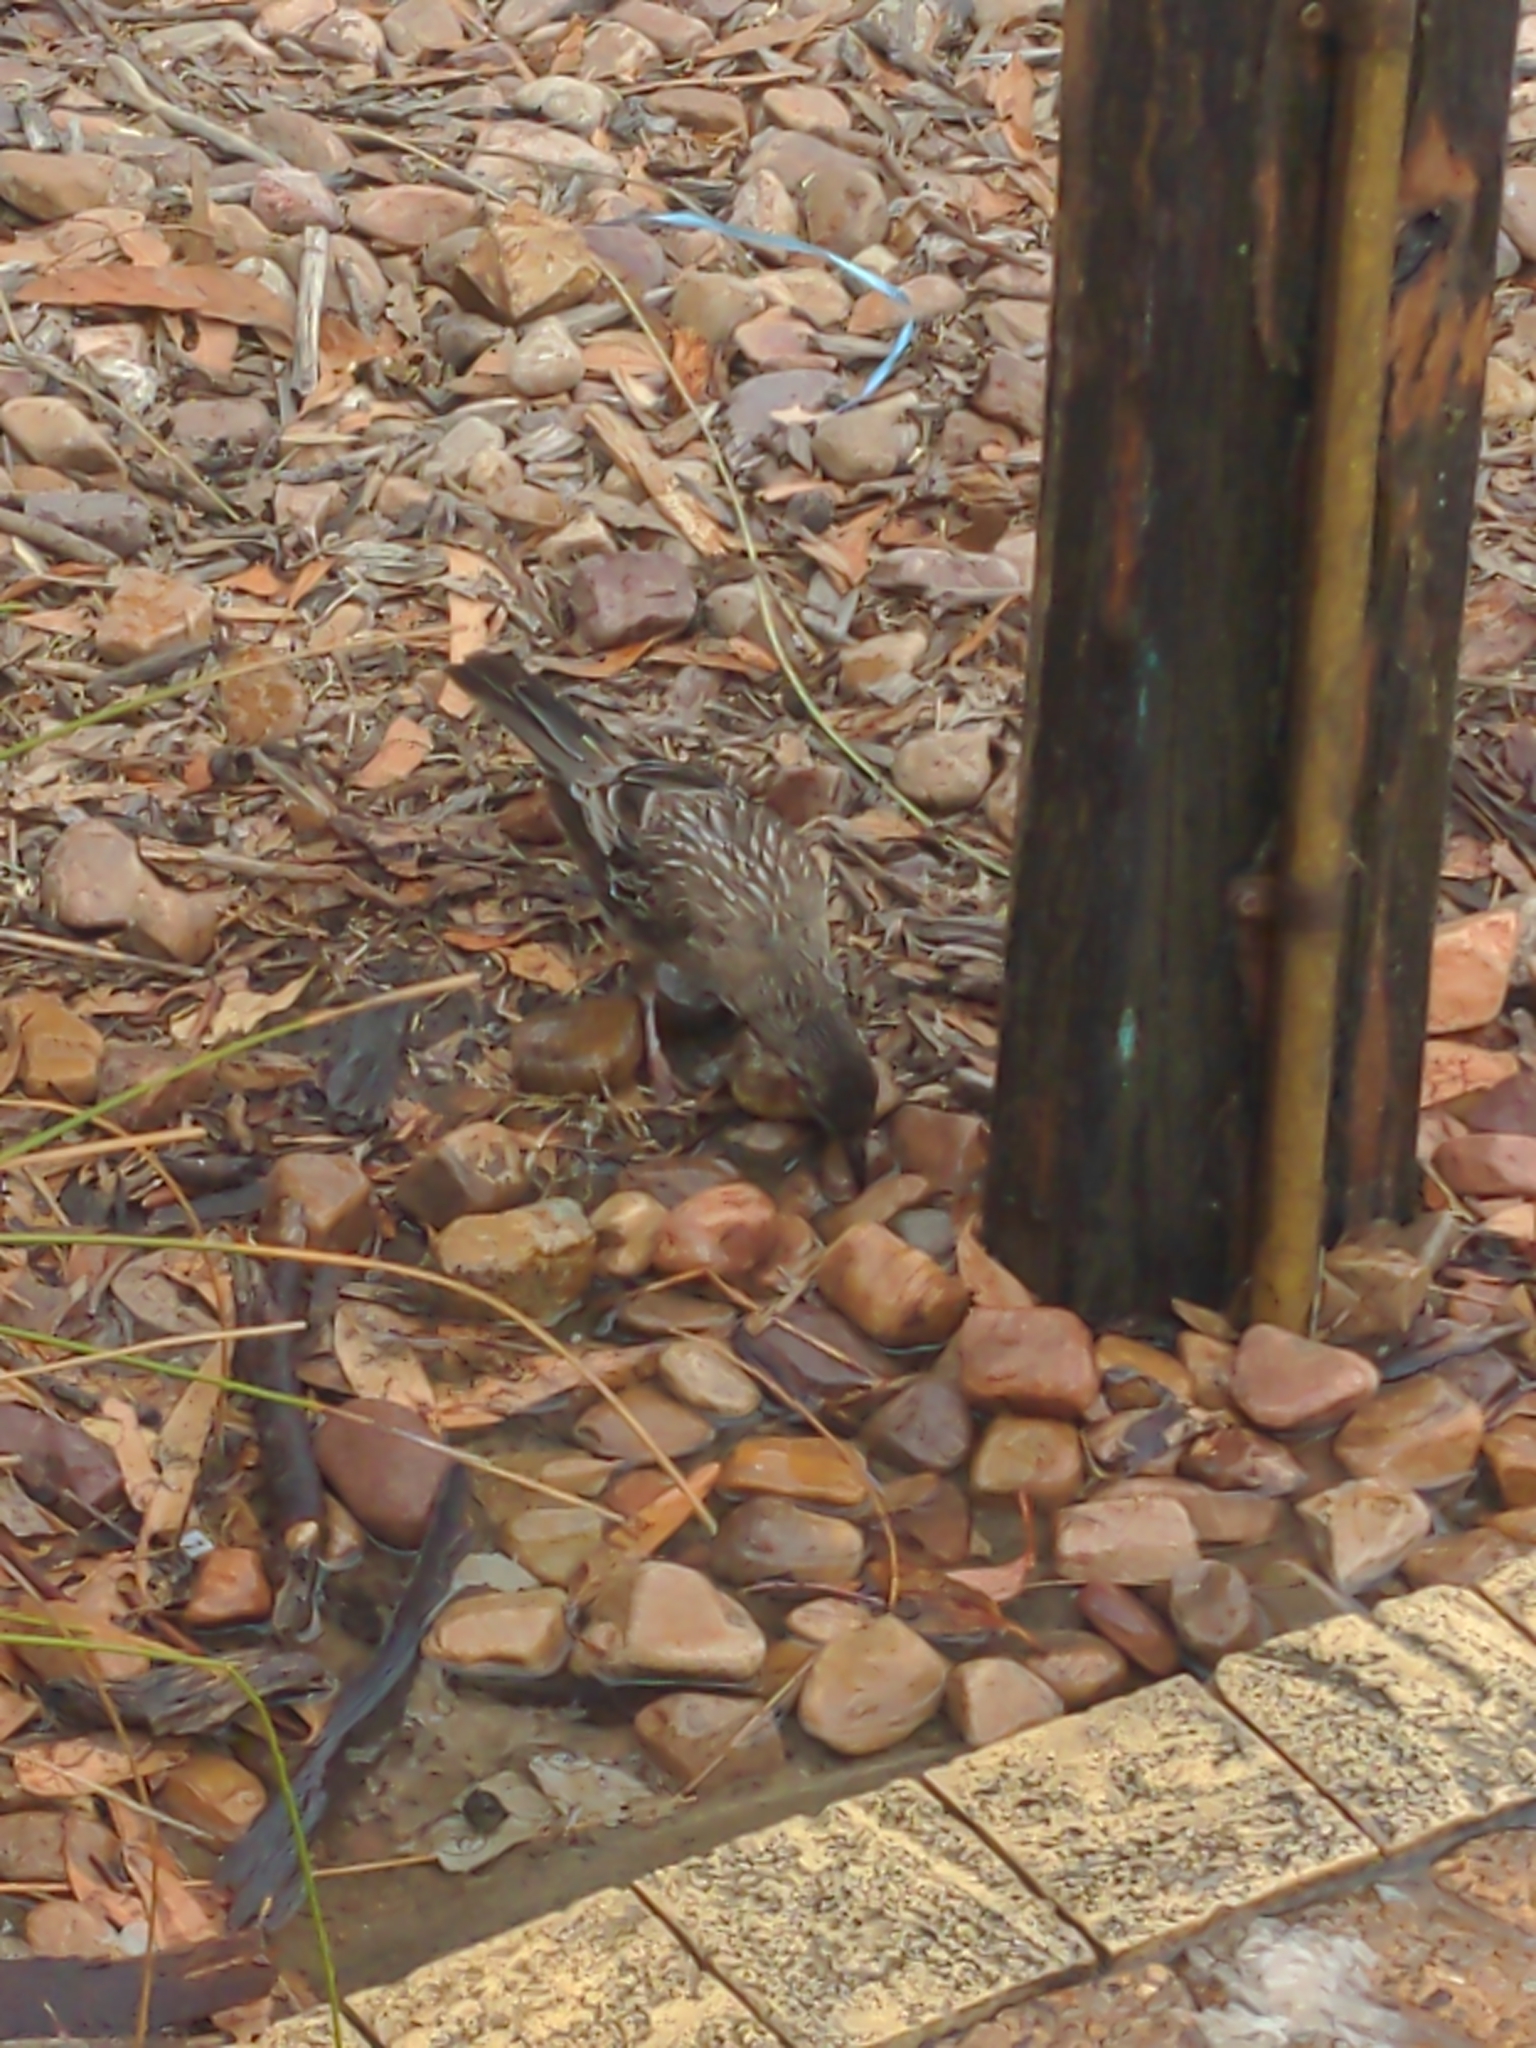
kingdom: Animalia
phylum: Chordata
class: Aves
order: Passeriformes
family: Meliphagidae
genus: Anthochaera
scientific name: Anthochaera carunculata
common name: Red wattlebird
